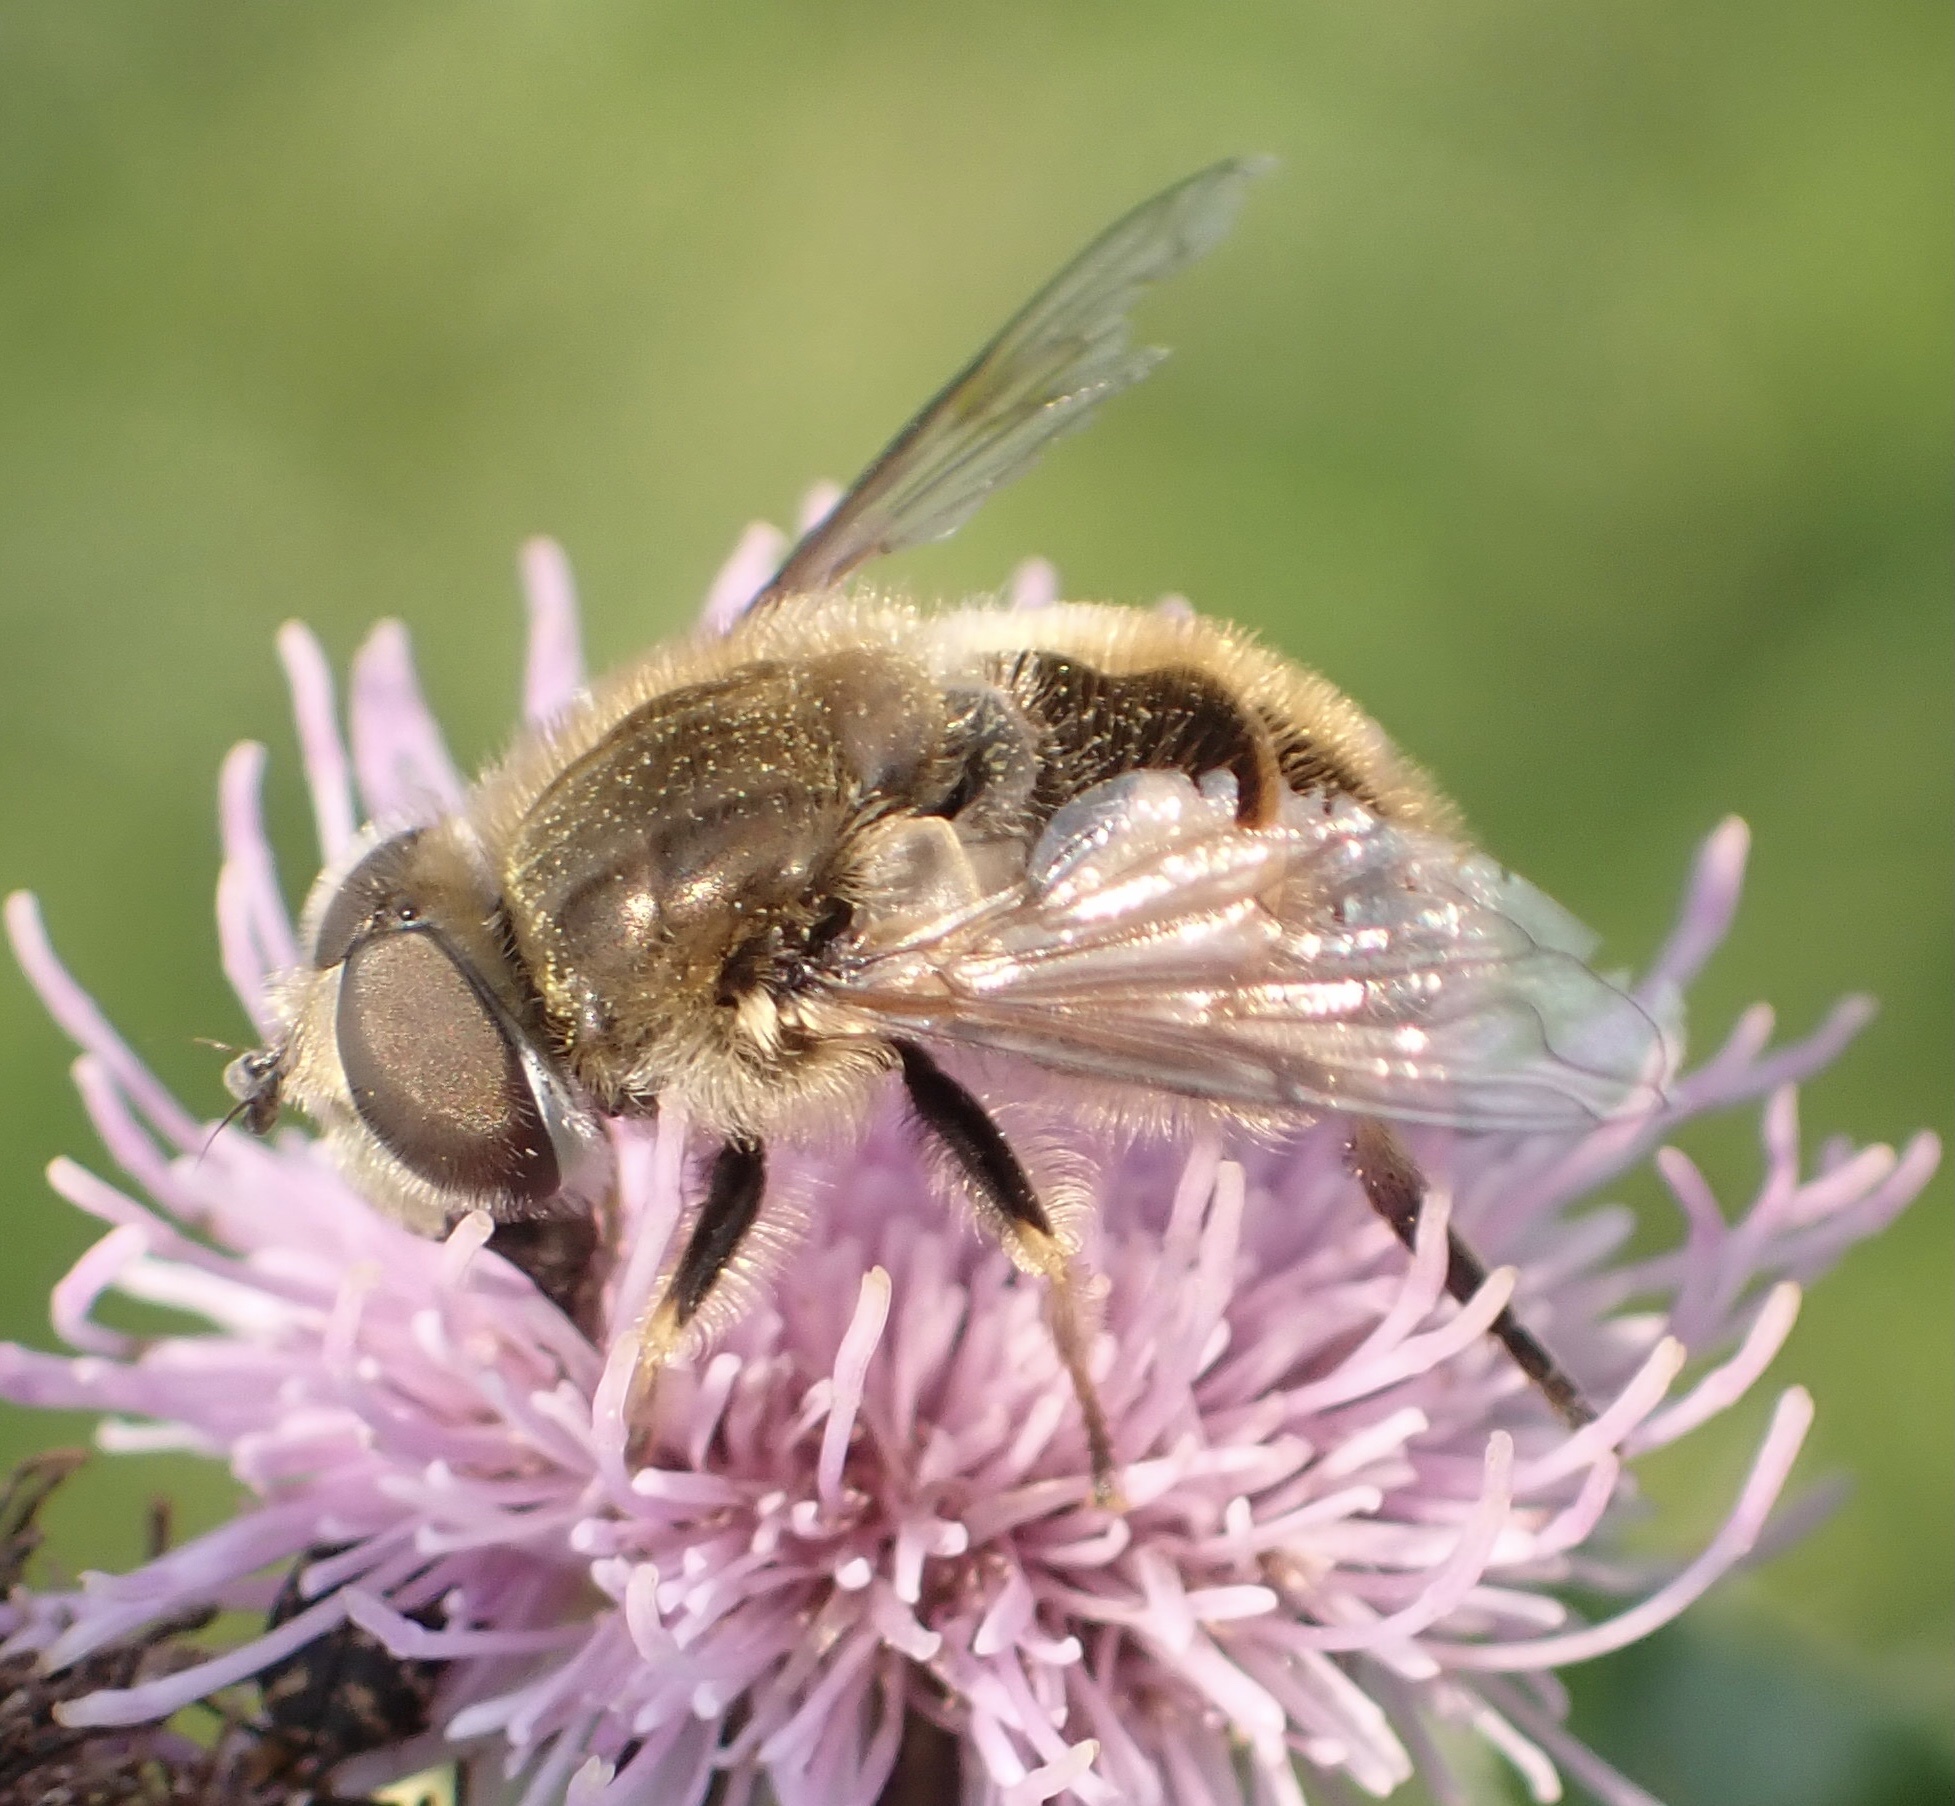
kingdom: Animalia
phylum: Arthropoda
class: Insecta
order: Diptera
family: Syrphidae
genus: Eristalis
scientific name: Eristalis abusivus
